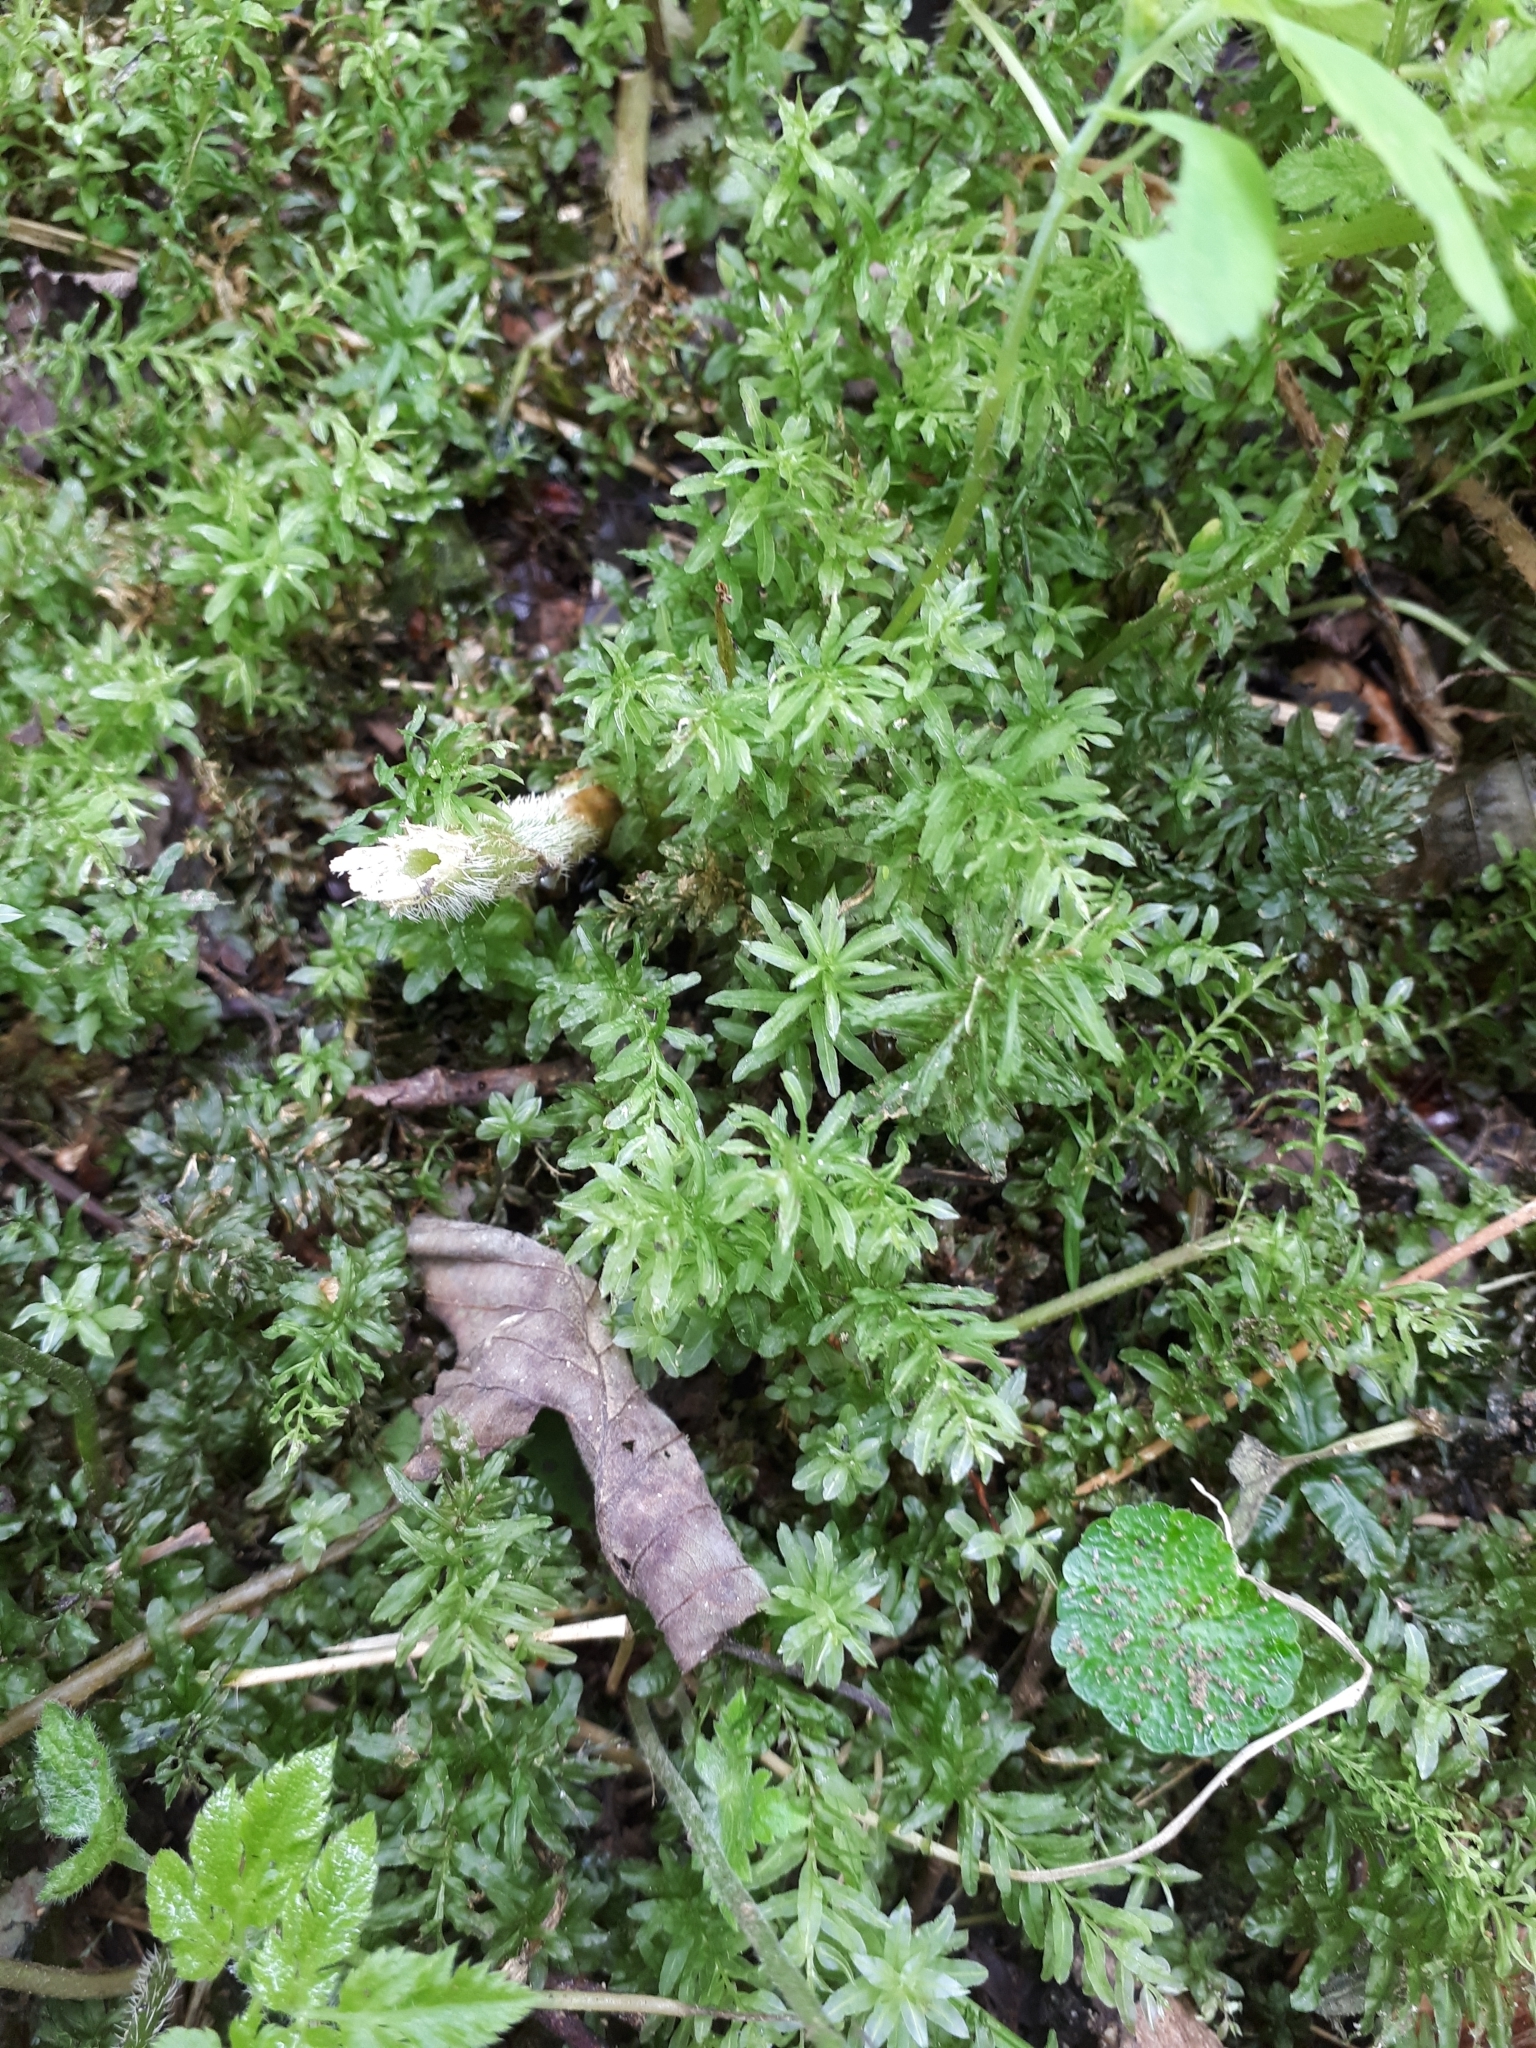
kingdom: Plantae
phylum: Bryophyta
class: Bryopsida
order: Bryales
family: Mniaceae
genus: Plagiomnium
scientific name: Plagiomnium undulatum
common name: Hart's-tongue thyme-moss
